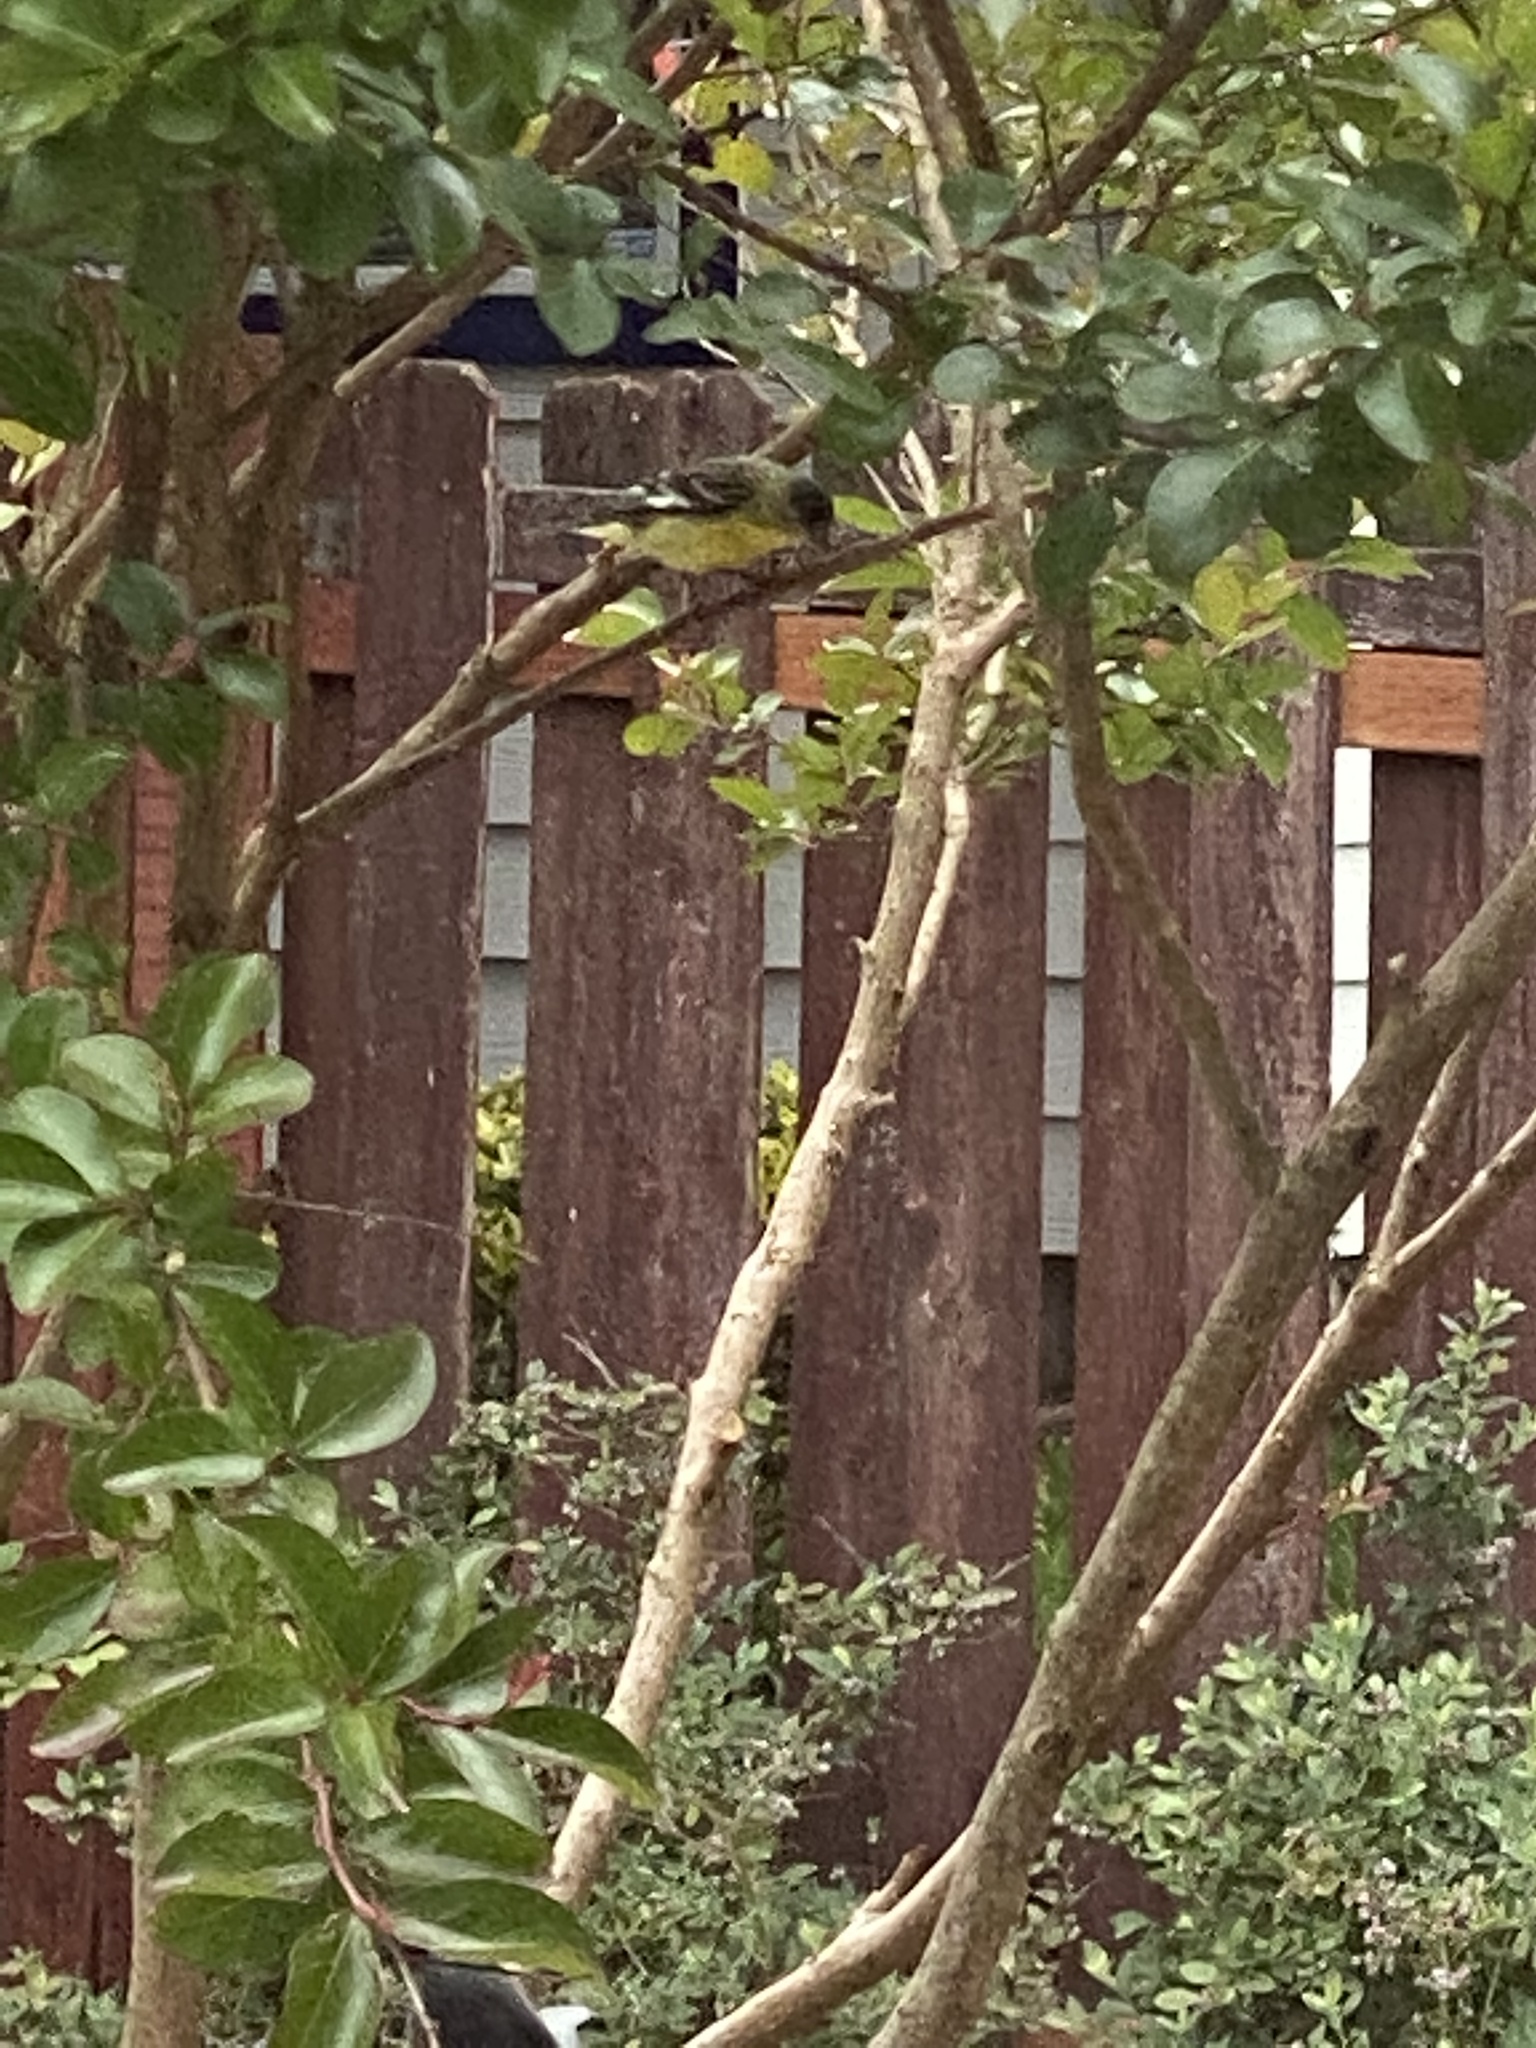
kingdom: Animalia
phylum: Chordata
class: Aves
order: Passeriformes
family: Fringillidae
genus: Spinus
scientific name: Spinus psaltria
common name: Lesser goldfinch
